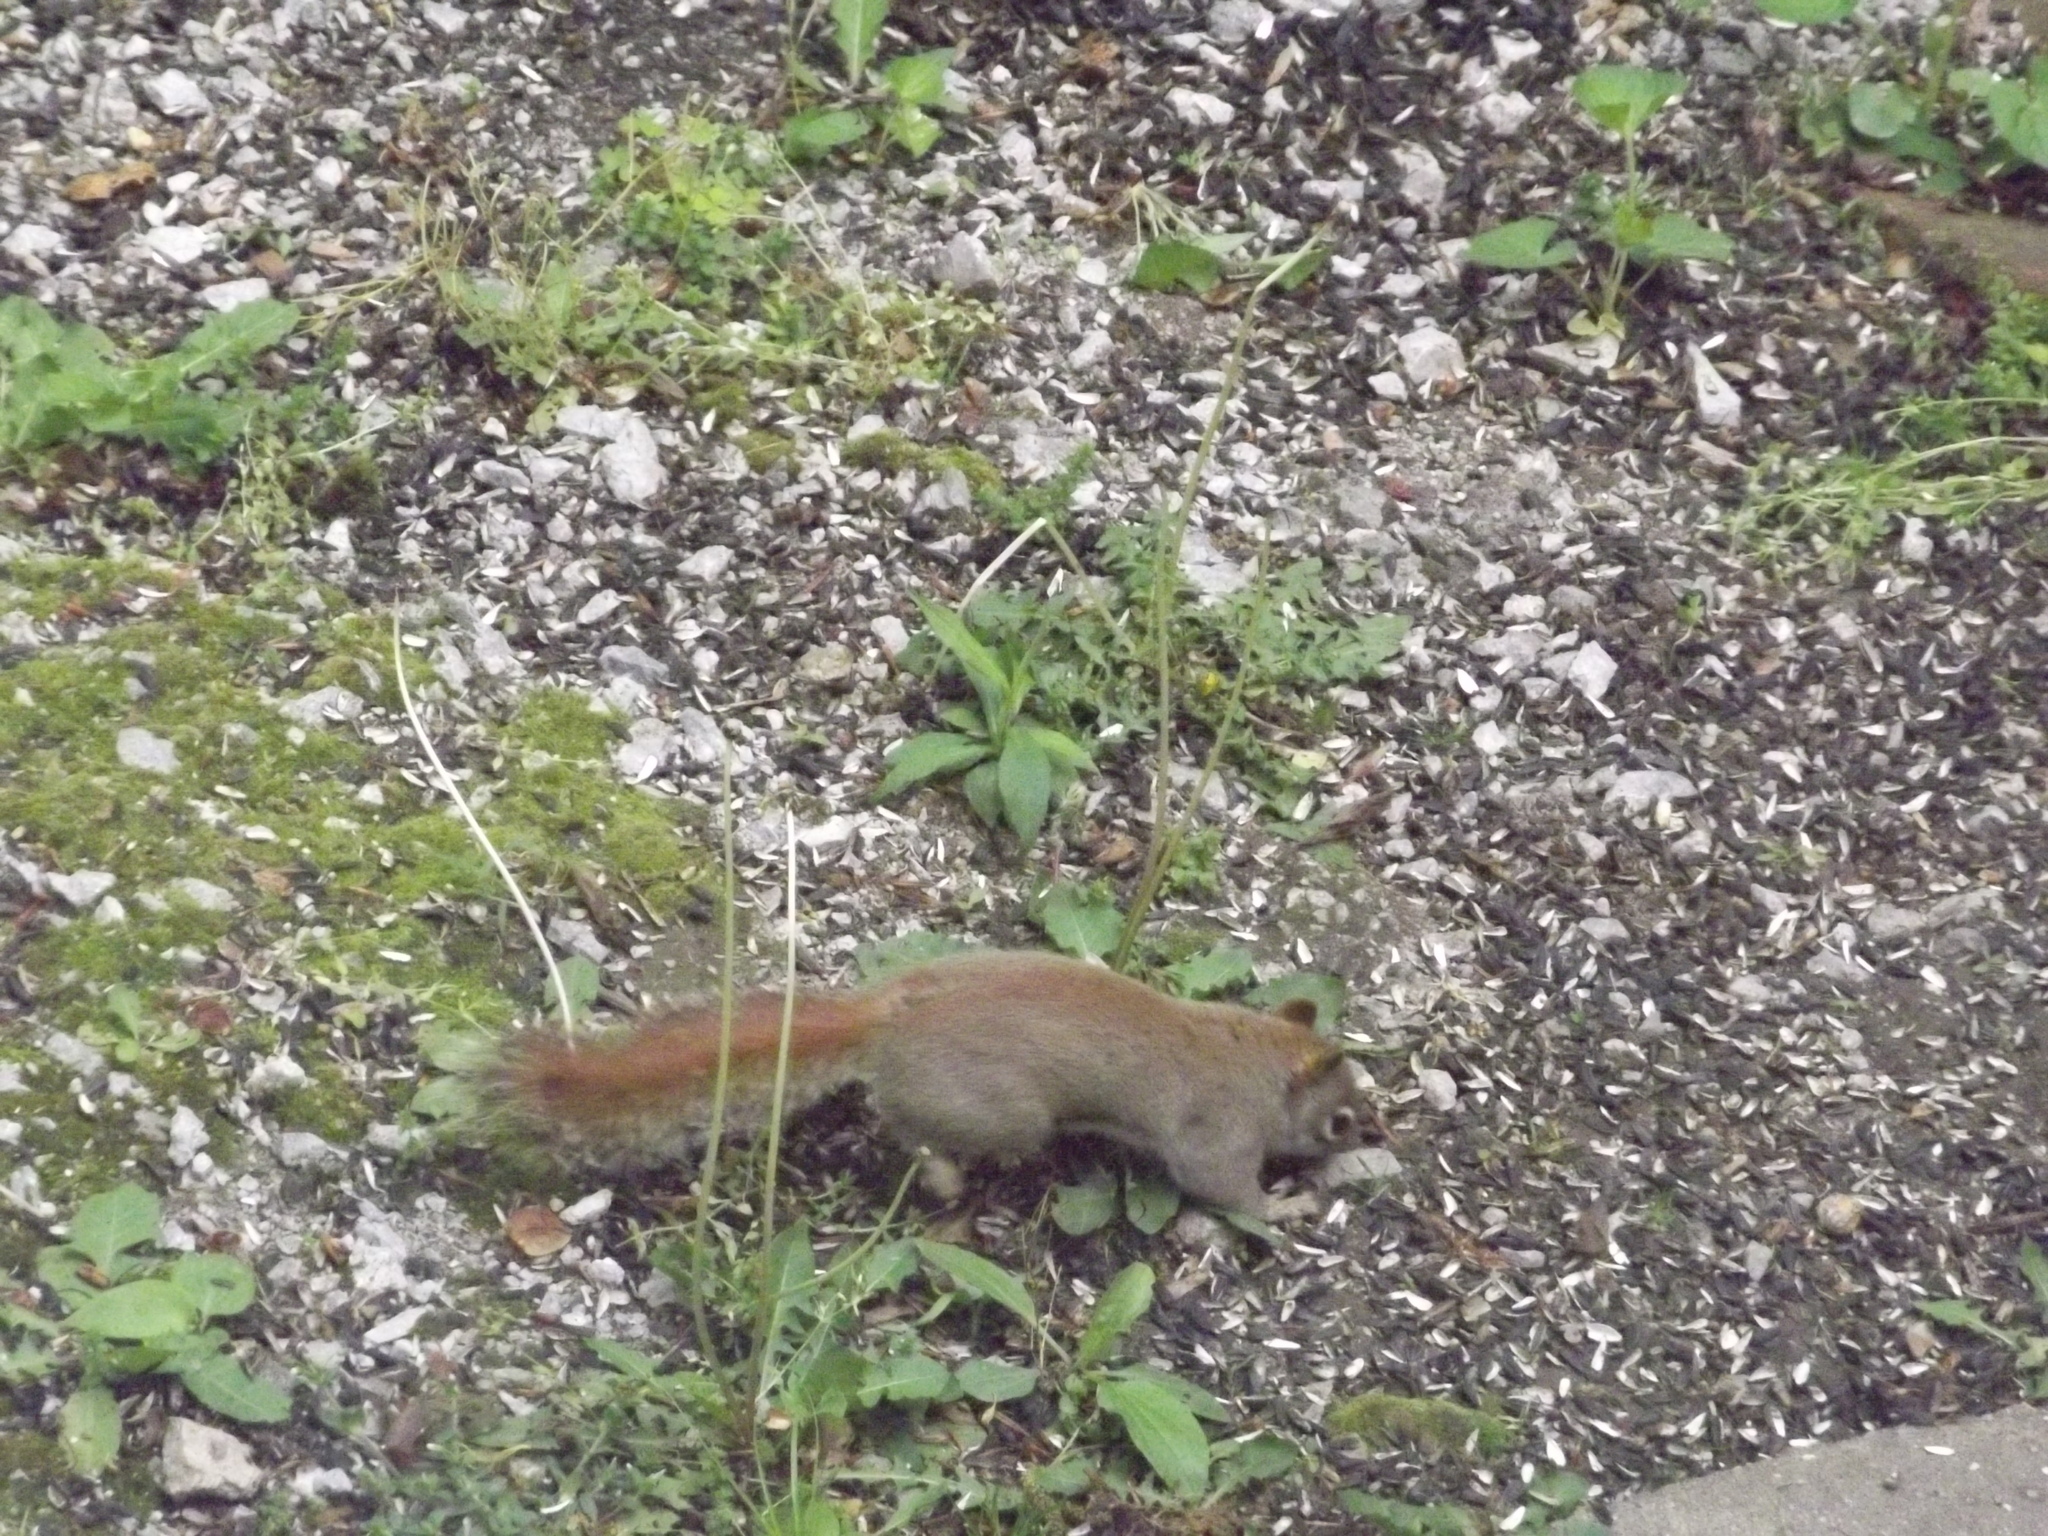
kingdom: Animalia
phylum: Chordata
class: Mammalia
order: Rodentia
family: Sciuridae
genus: Tamiasciurus
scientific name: Tamiasciurus hudsonicus
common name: Red squirrel
